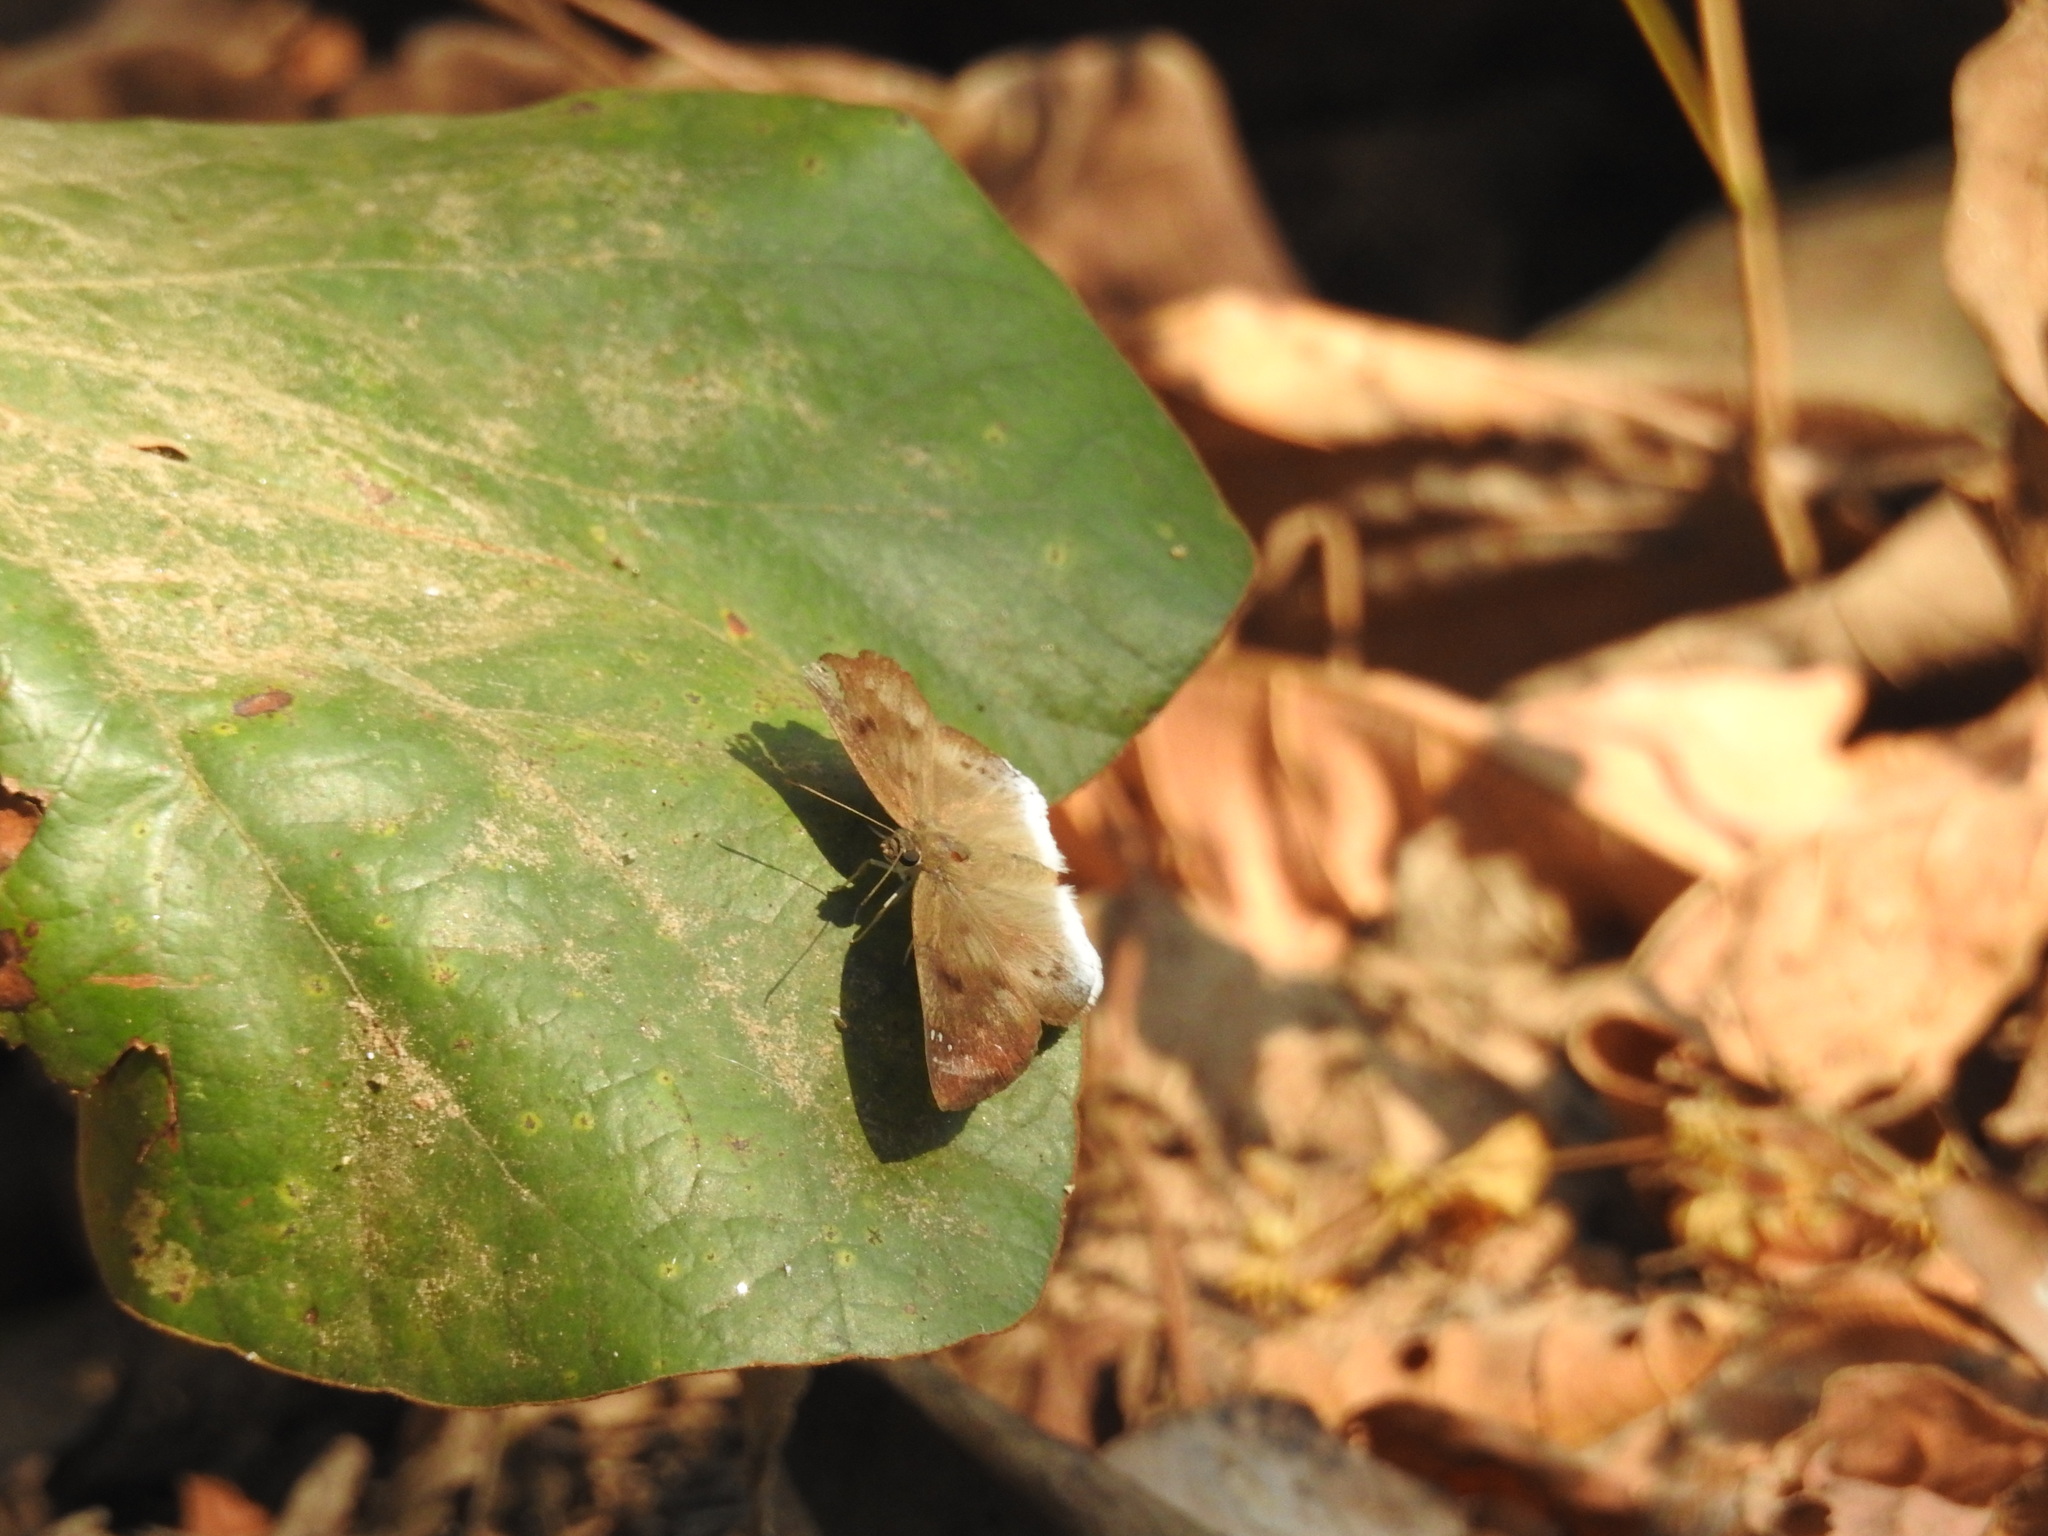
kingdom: Animalia
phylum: Arthropoda
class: Insecta
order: Lepidoptera
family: Hesperiidae
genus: Tagiades
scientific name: Tagiades japetus
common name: Pied flat
